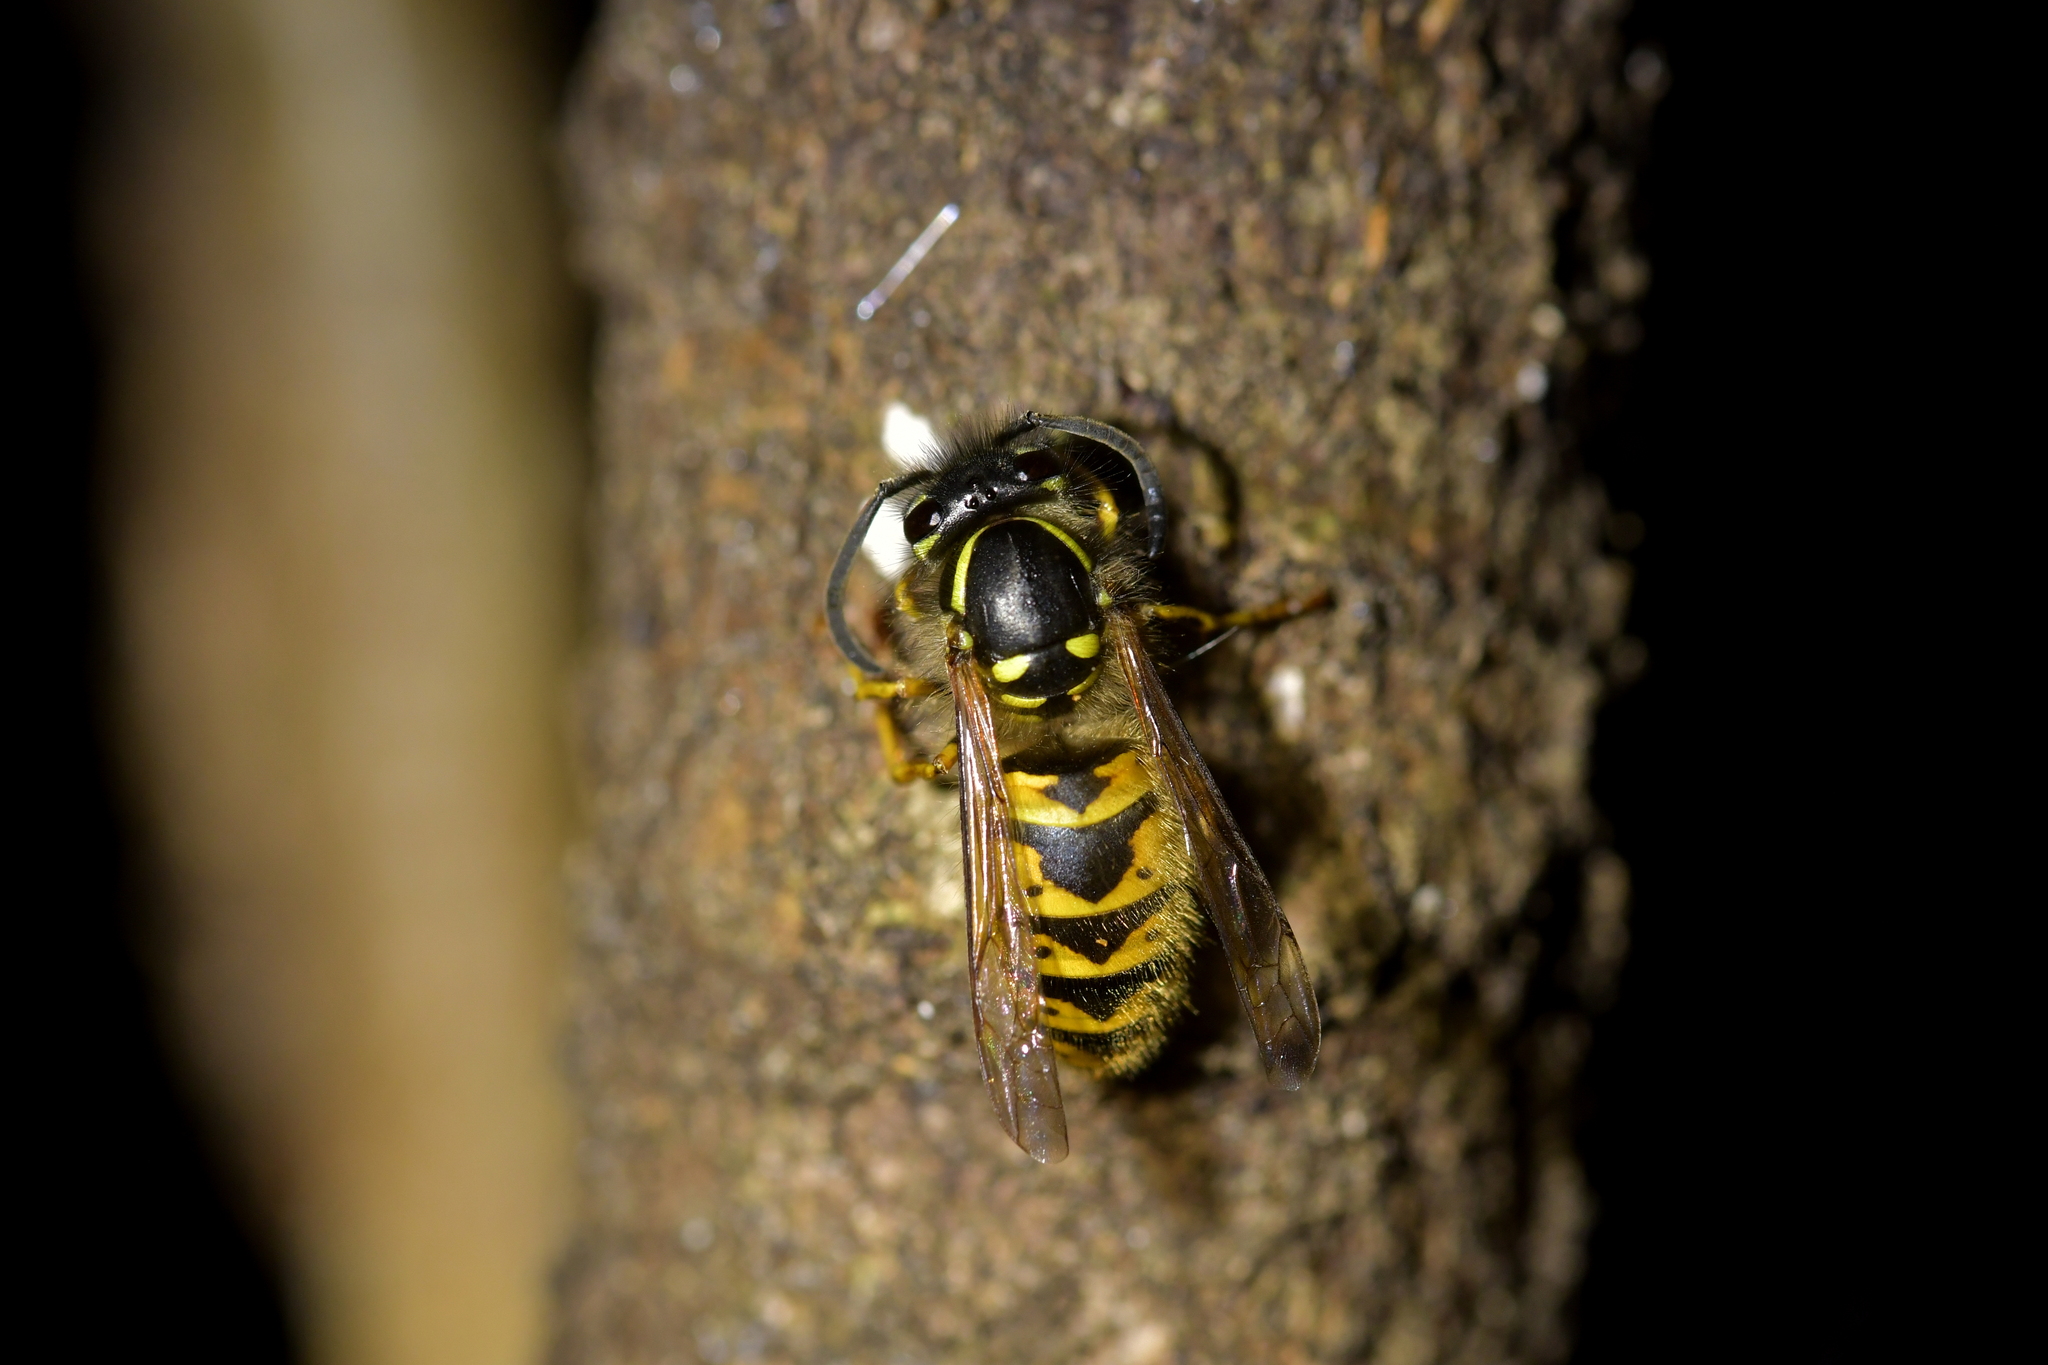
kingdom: Animalia
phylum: Arthropoda
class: Insecta
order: Hymenoptera
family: Vespidae
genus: Vespula
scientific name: Vespula vulgaris
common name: Common wasp
